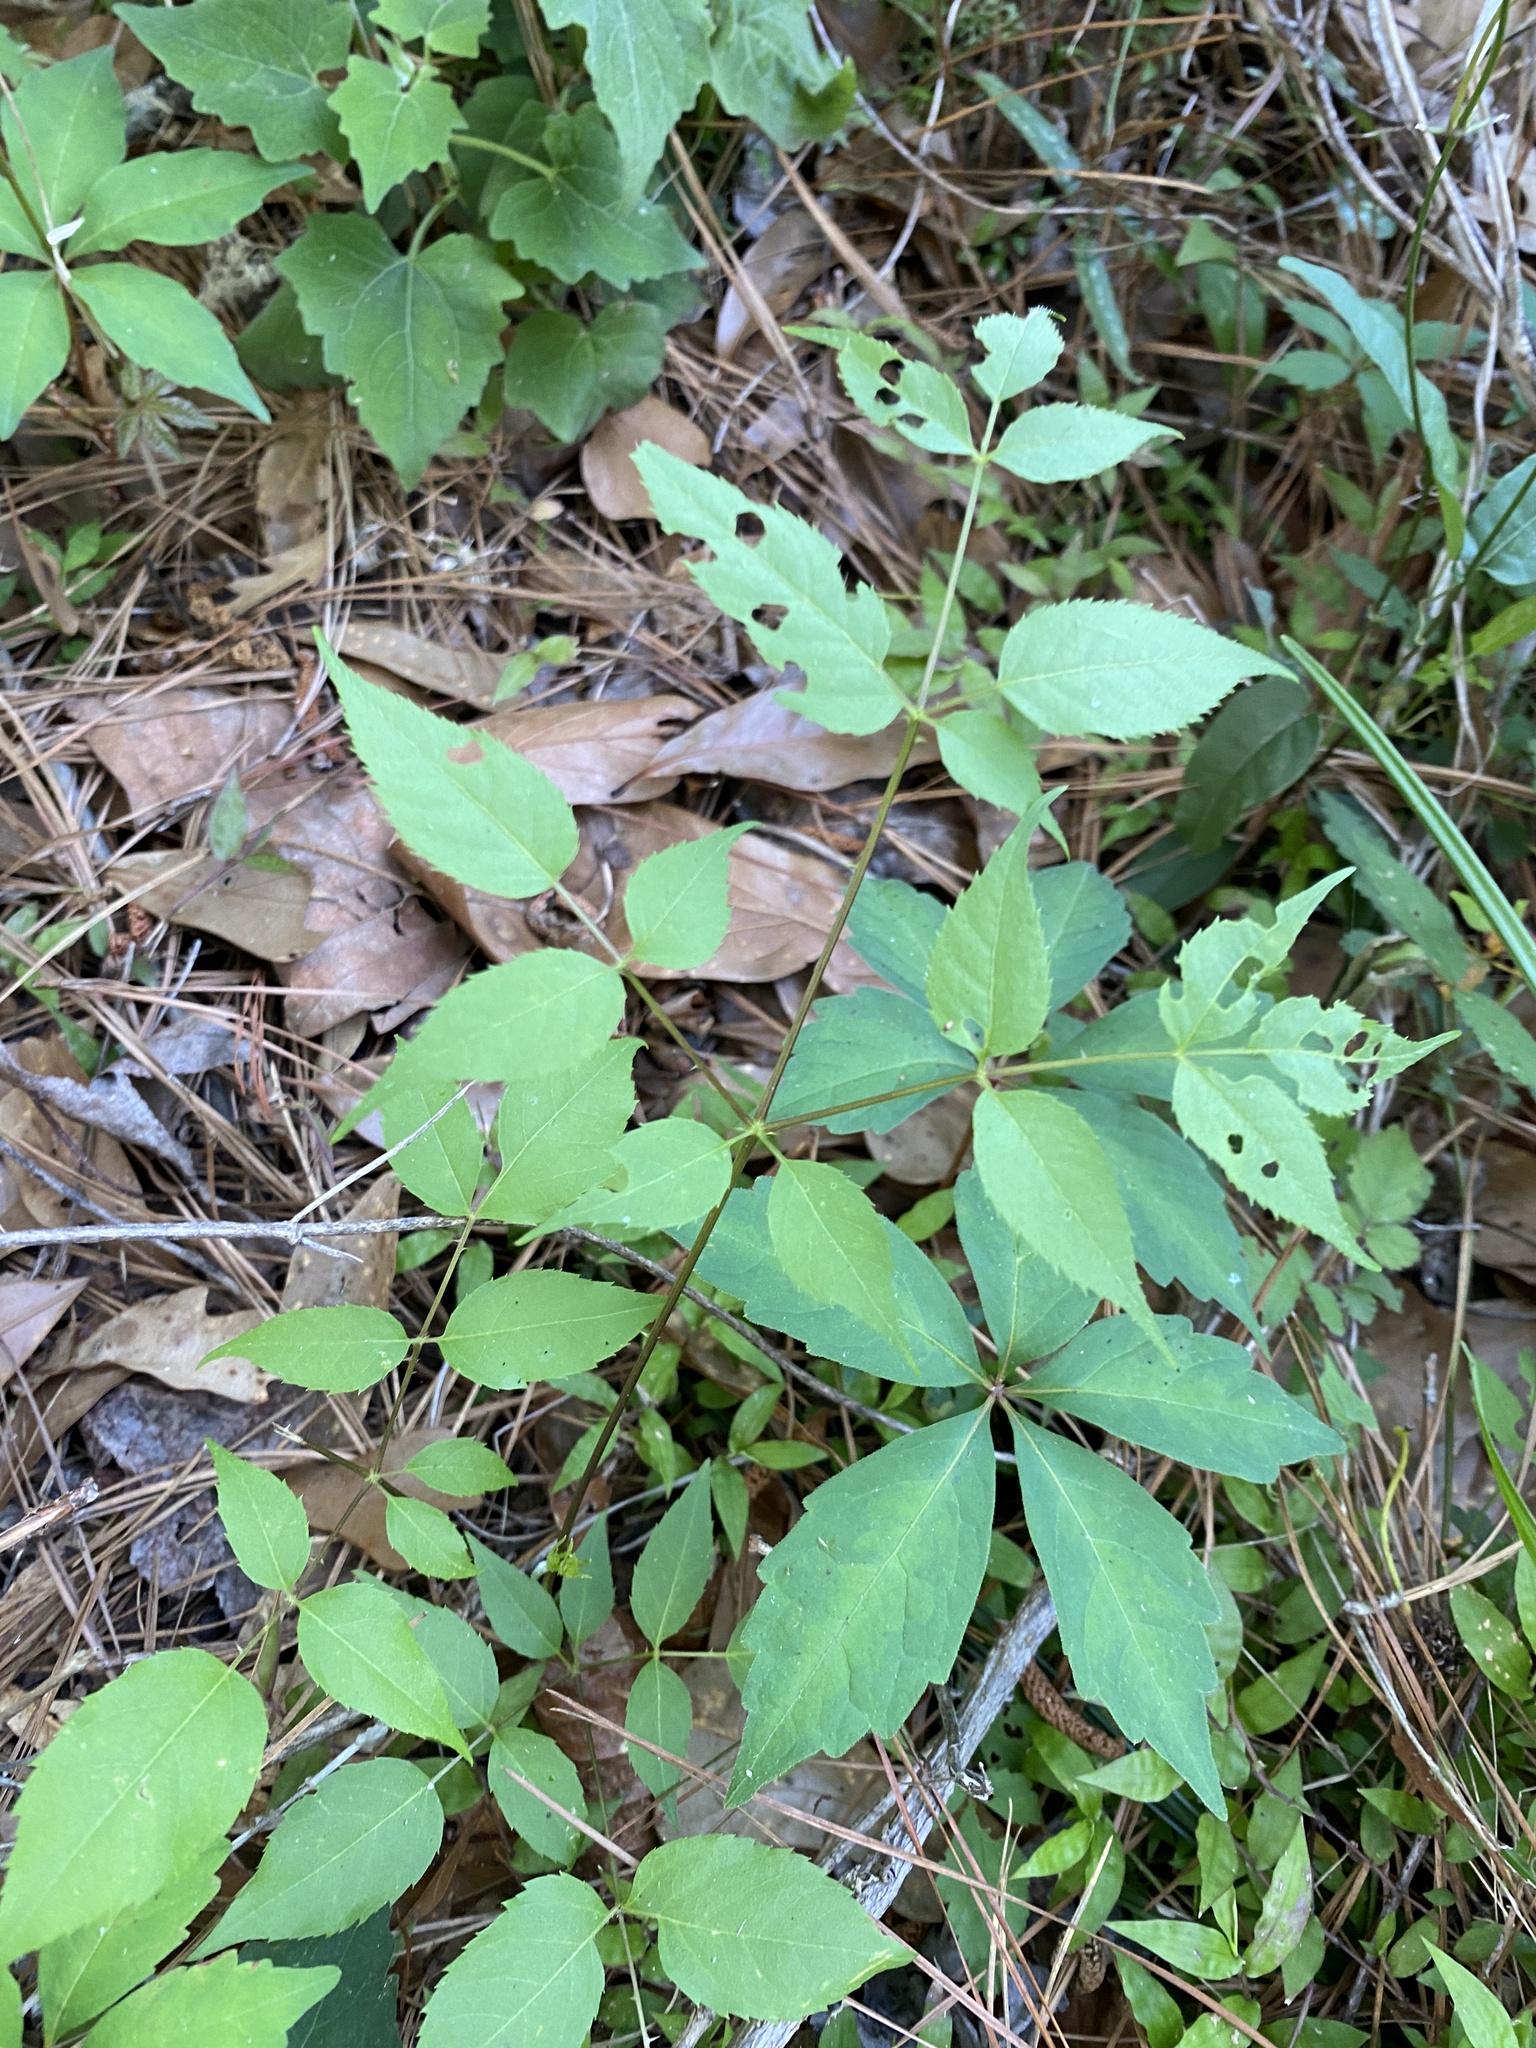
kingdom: Plantae
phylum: Tracheophyta
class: Magnoliopsida
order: Apiales
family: Araliaceae
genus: Aralia
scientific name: Aralia spinosa
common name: Hercules'-club
